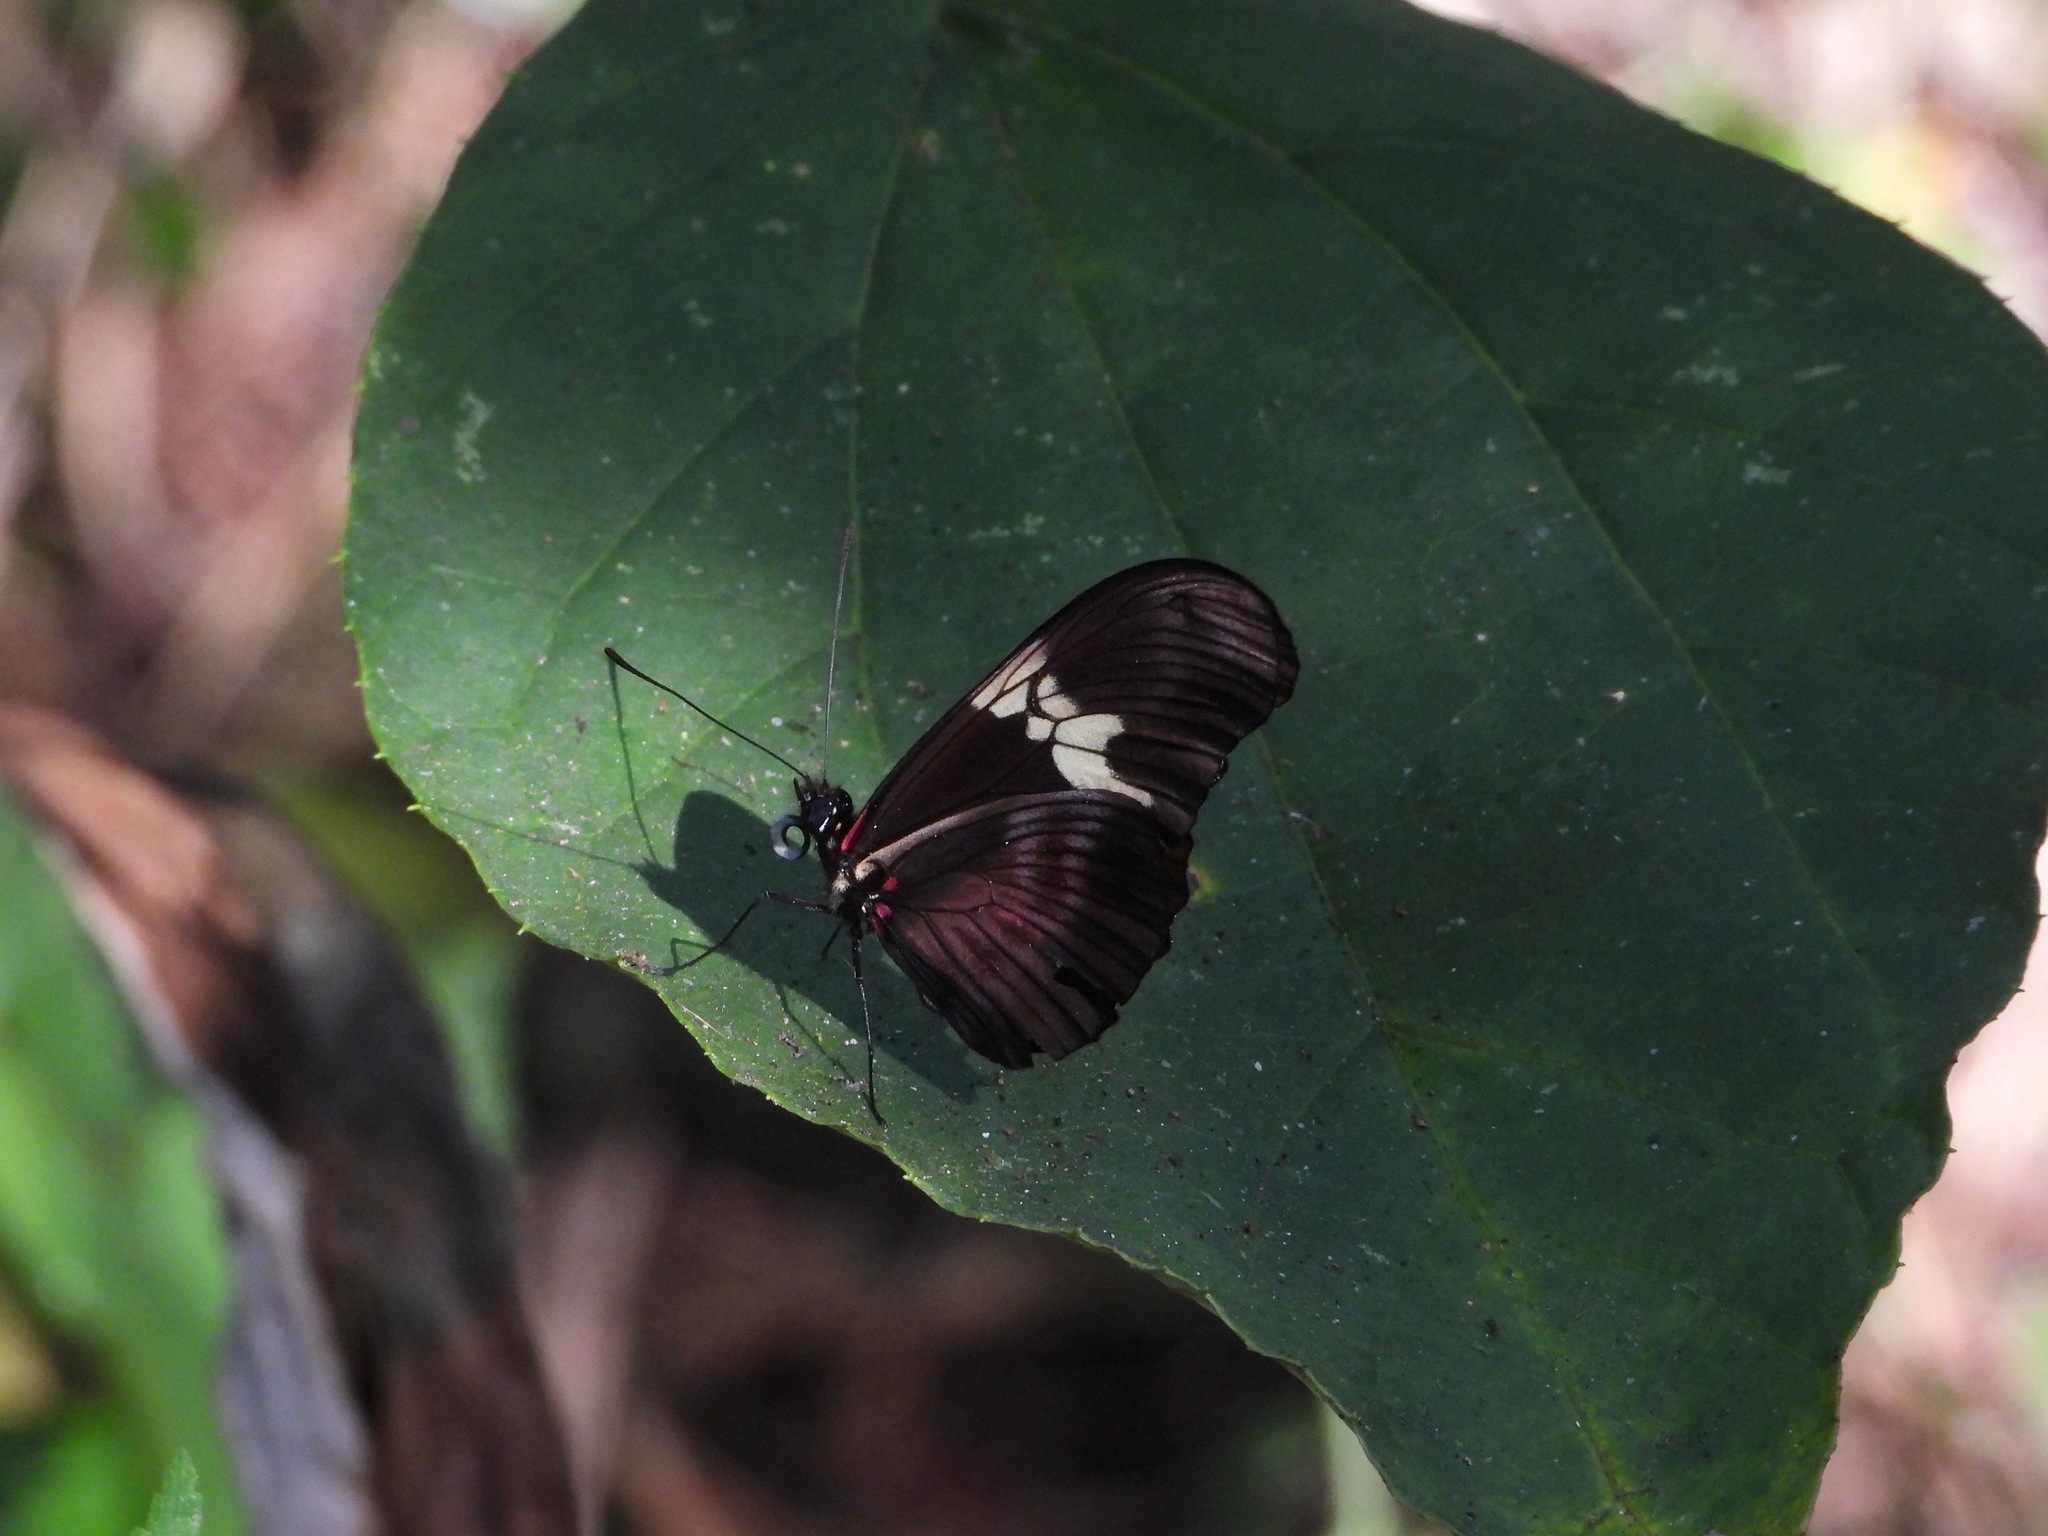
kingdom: Animalia
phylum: Arthropoda
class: Insecta
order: Lepidoptera
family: Nymphalidae
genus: Heliconius
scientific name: Heliconius hortense
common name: Mexican longwing
